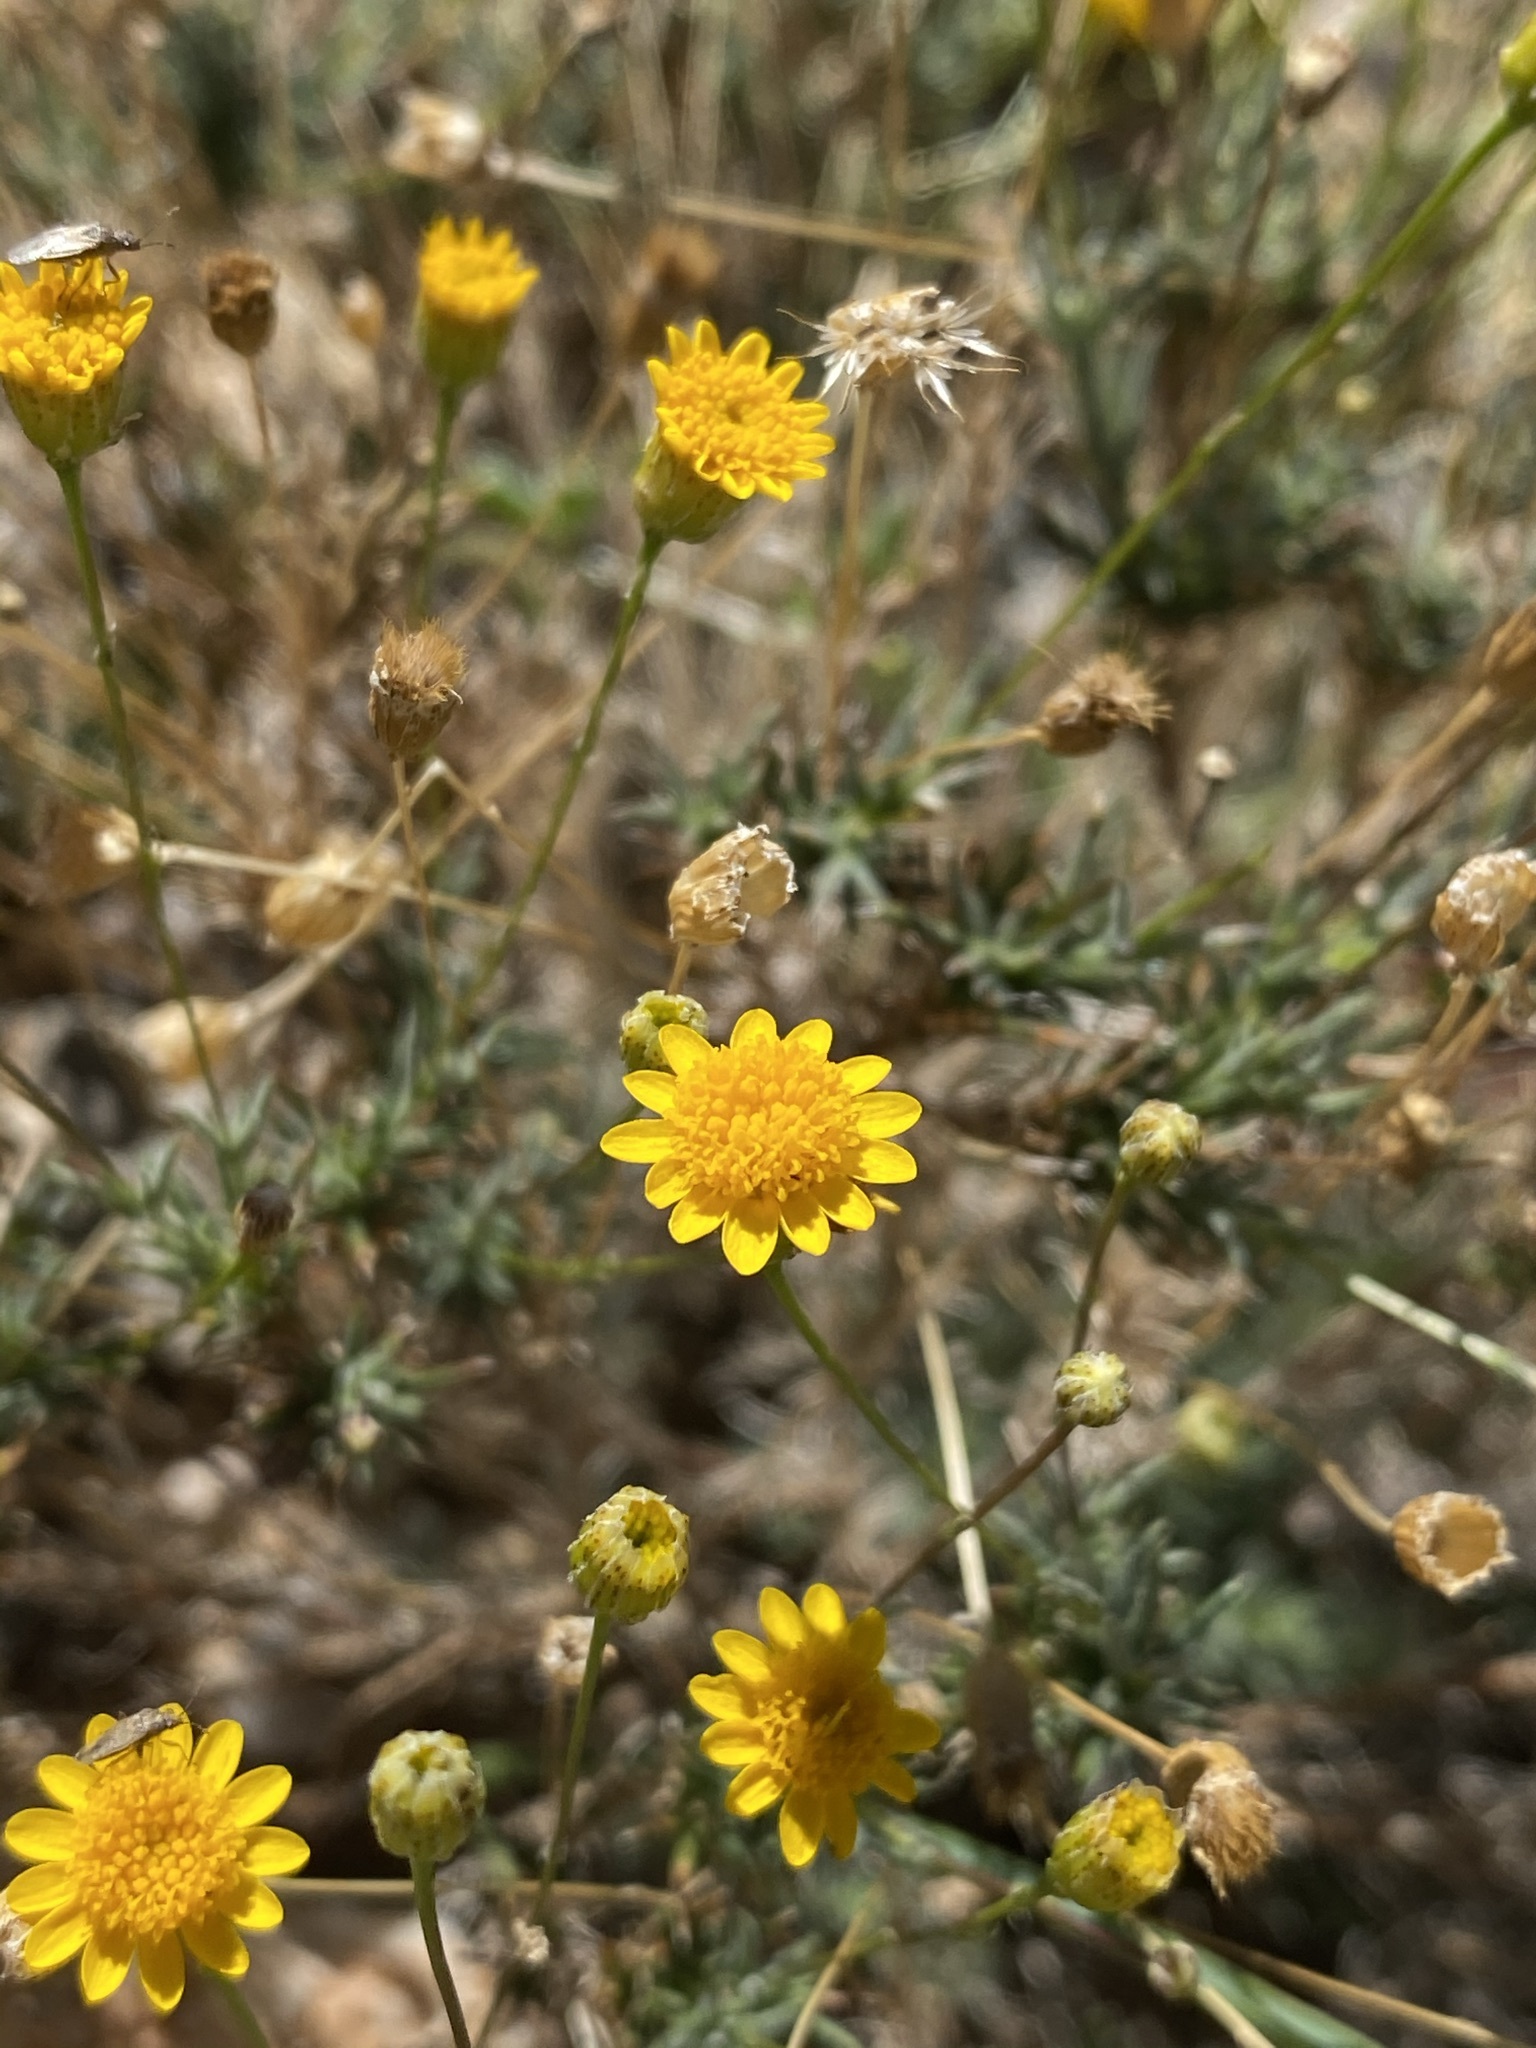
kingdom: Plantae
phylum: Tracheophyta
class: Magnoliopsida
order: Asterales
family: Asteraceae
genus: Thymophylla
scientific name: Thymophylla pentachaeta
